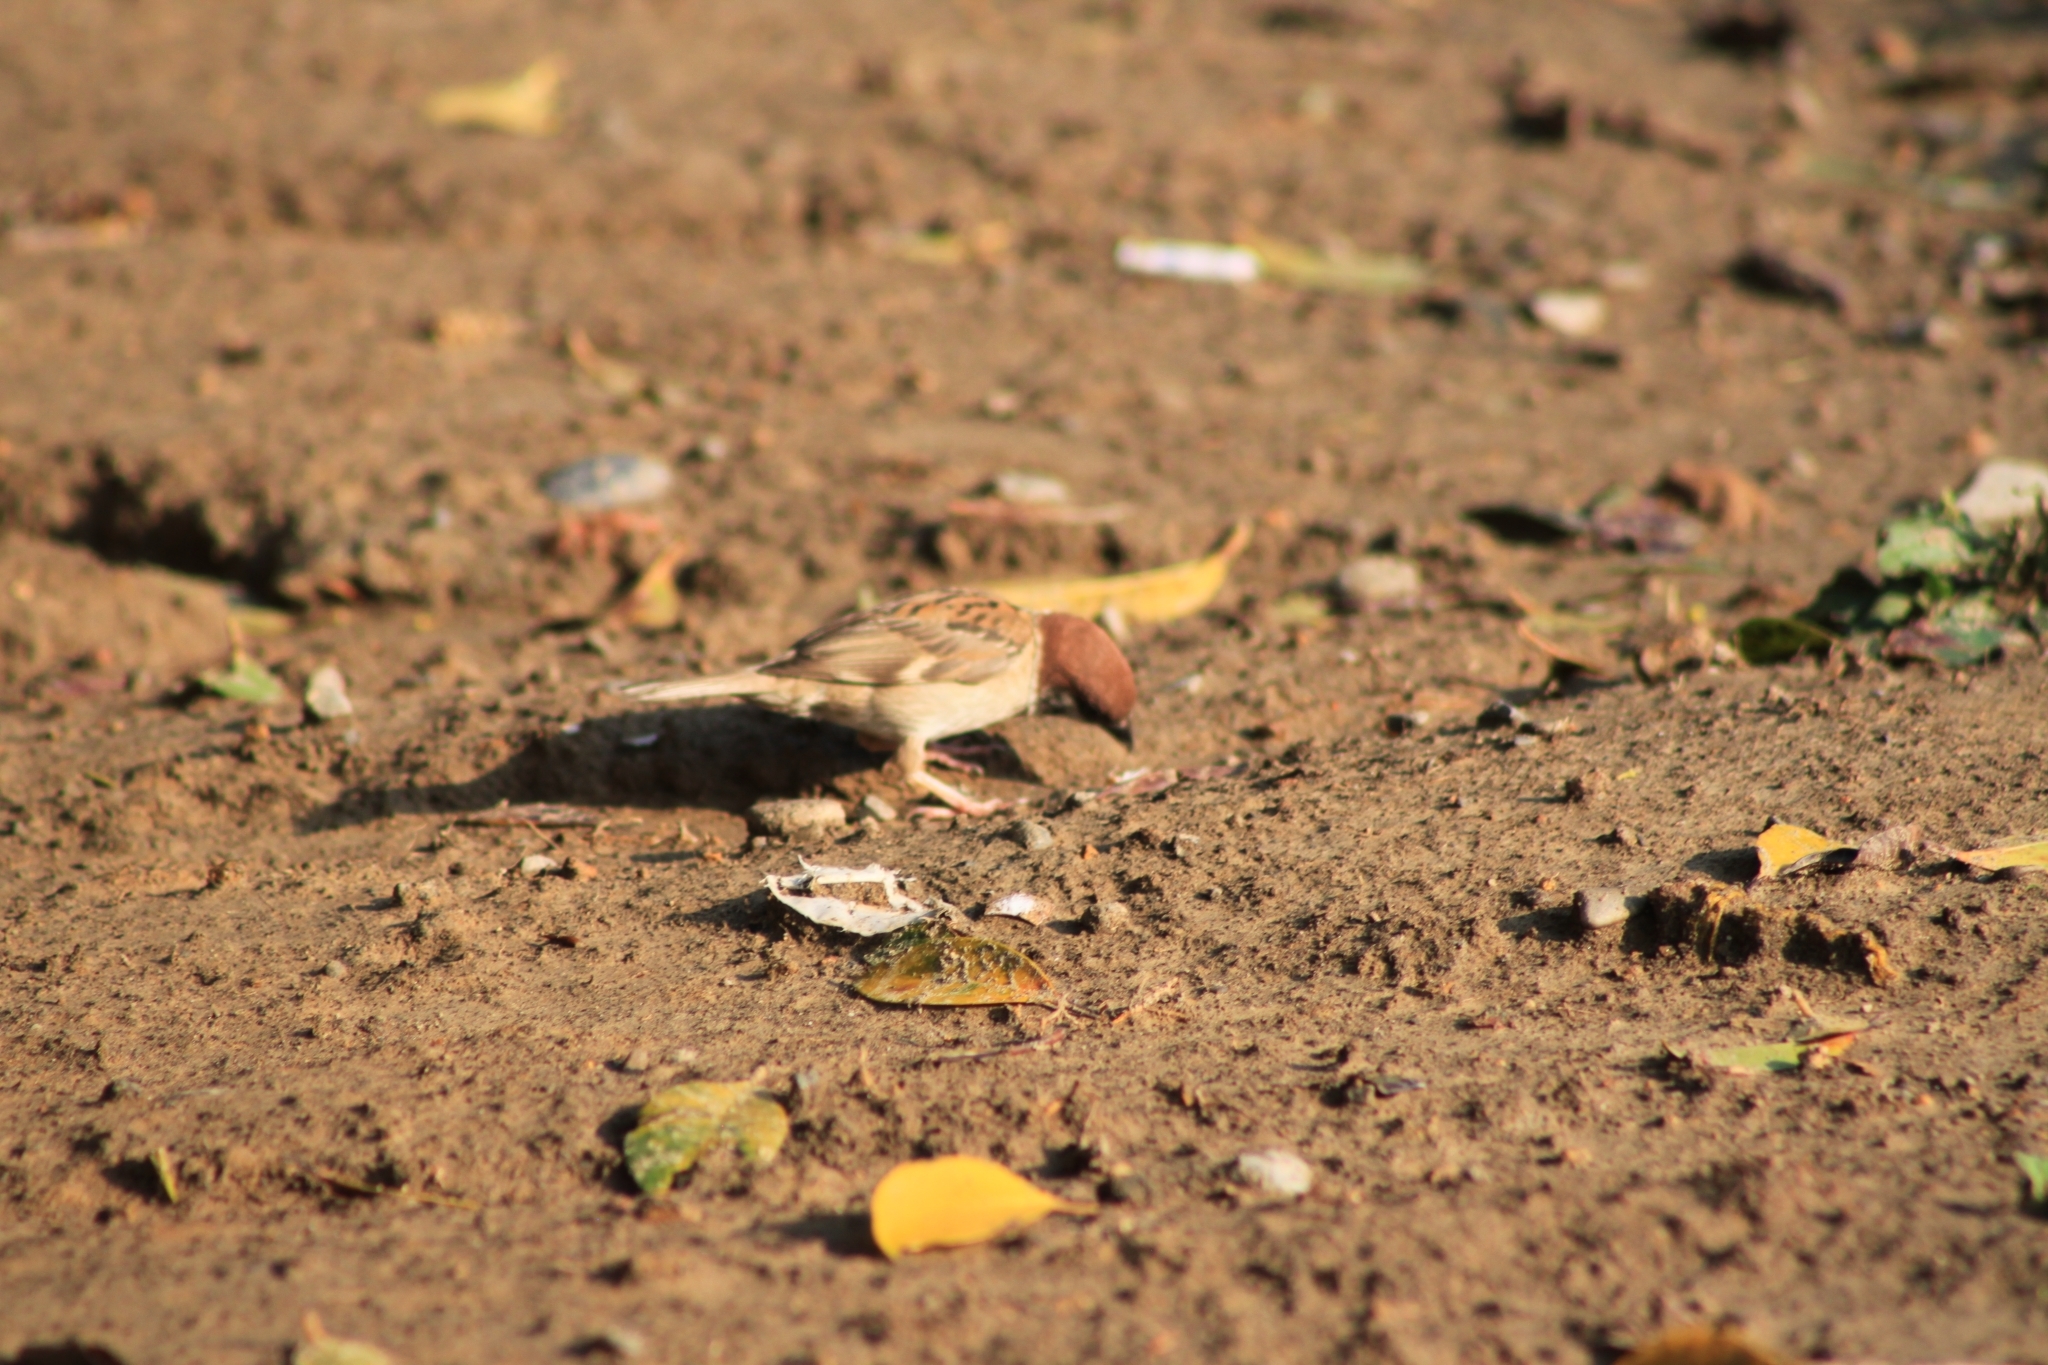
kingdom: Animalia
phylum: Chordata
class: Aves
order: Passeriformes
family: Passeridae
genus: Passer
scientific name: Passer montanus
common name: Eurasian tree sparrow
